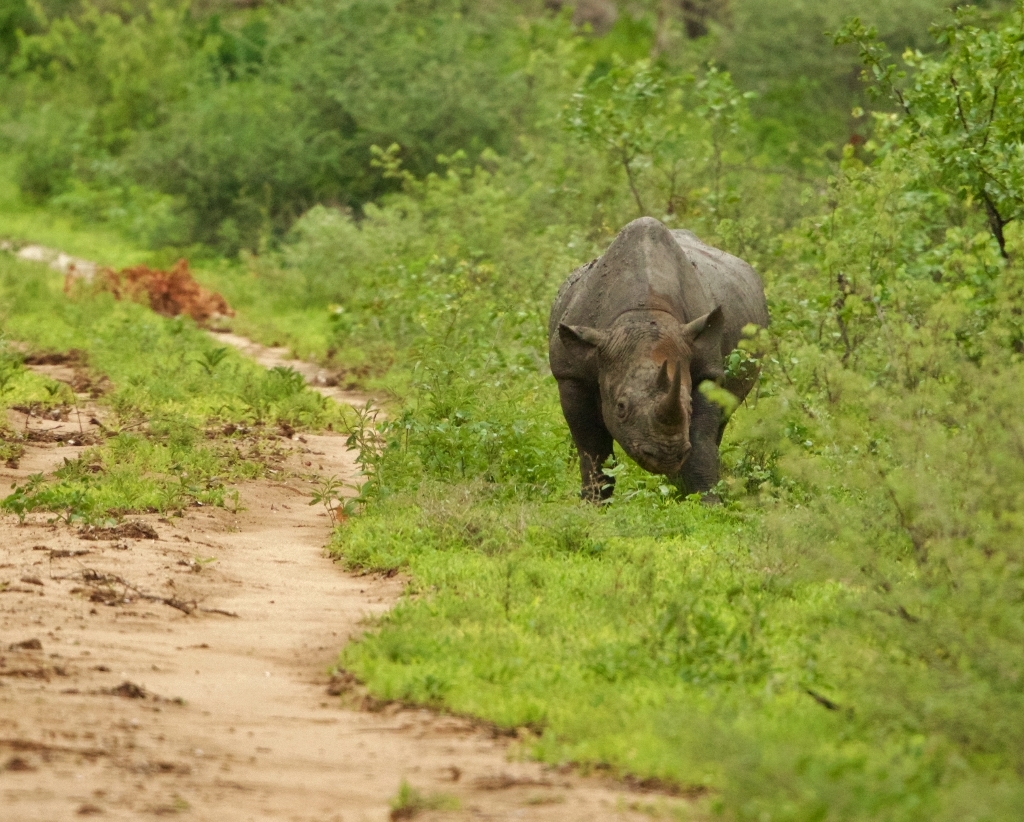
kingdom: Animalia
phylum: Chordata
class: Mammalia
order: Perissodactyla
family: Rhinocerotidae
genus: Diceros
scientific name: Diceros bicornis
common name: Black rhinoceros
